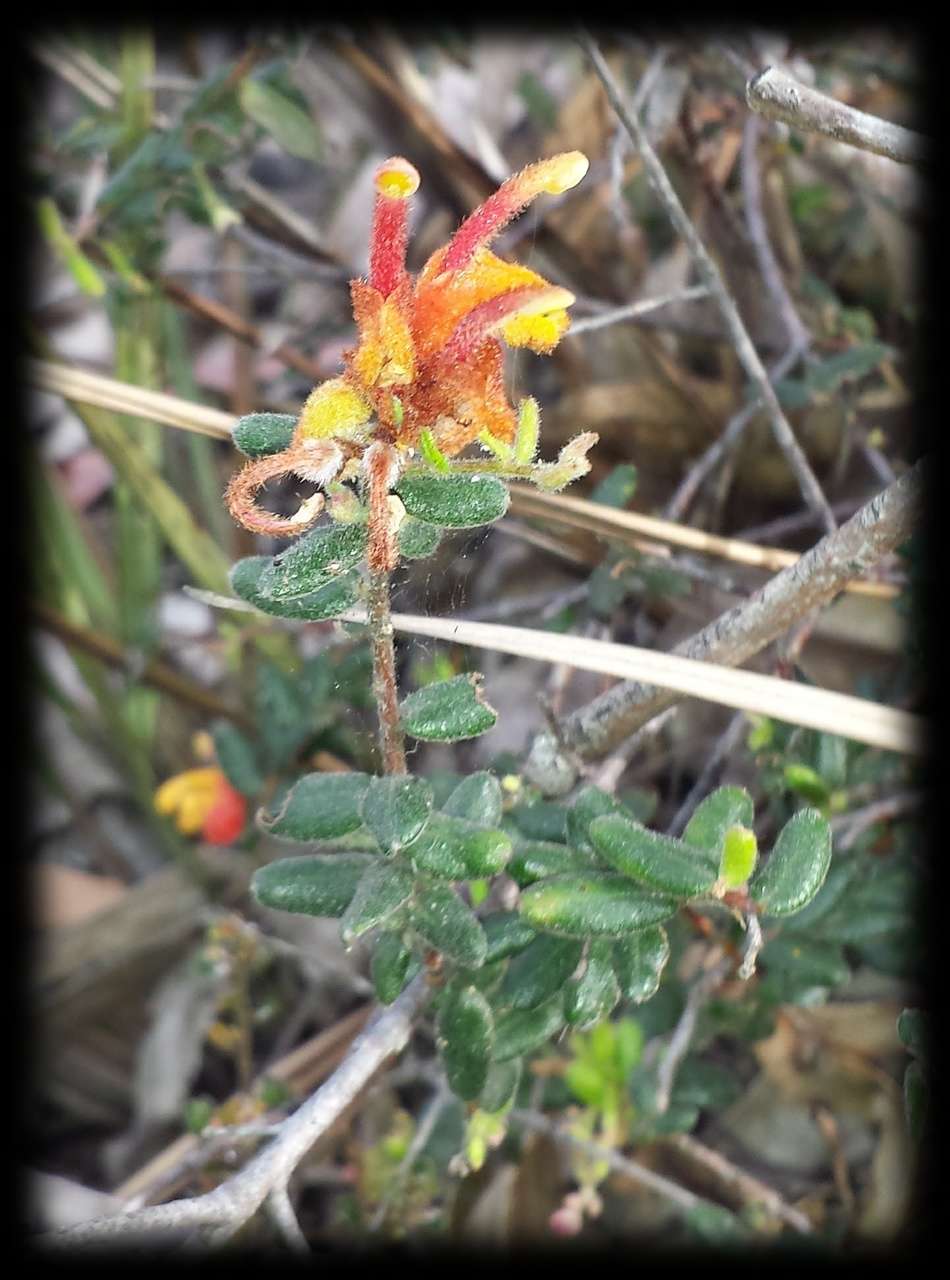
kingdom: Plantae
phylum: Tracheophyta
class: Magnoliopsida
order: Proteales
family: Proteaceae
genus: Grevillea
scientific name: Grevillea alpina
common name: Catclaws grevillea
